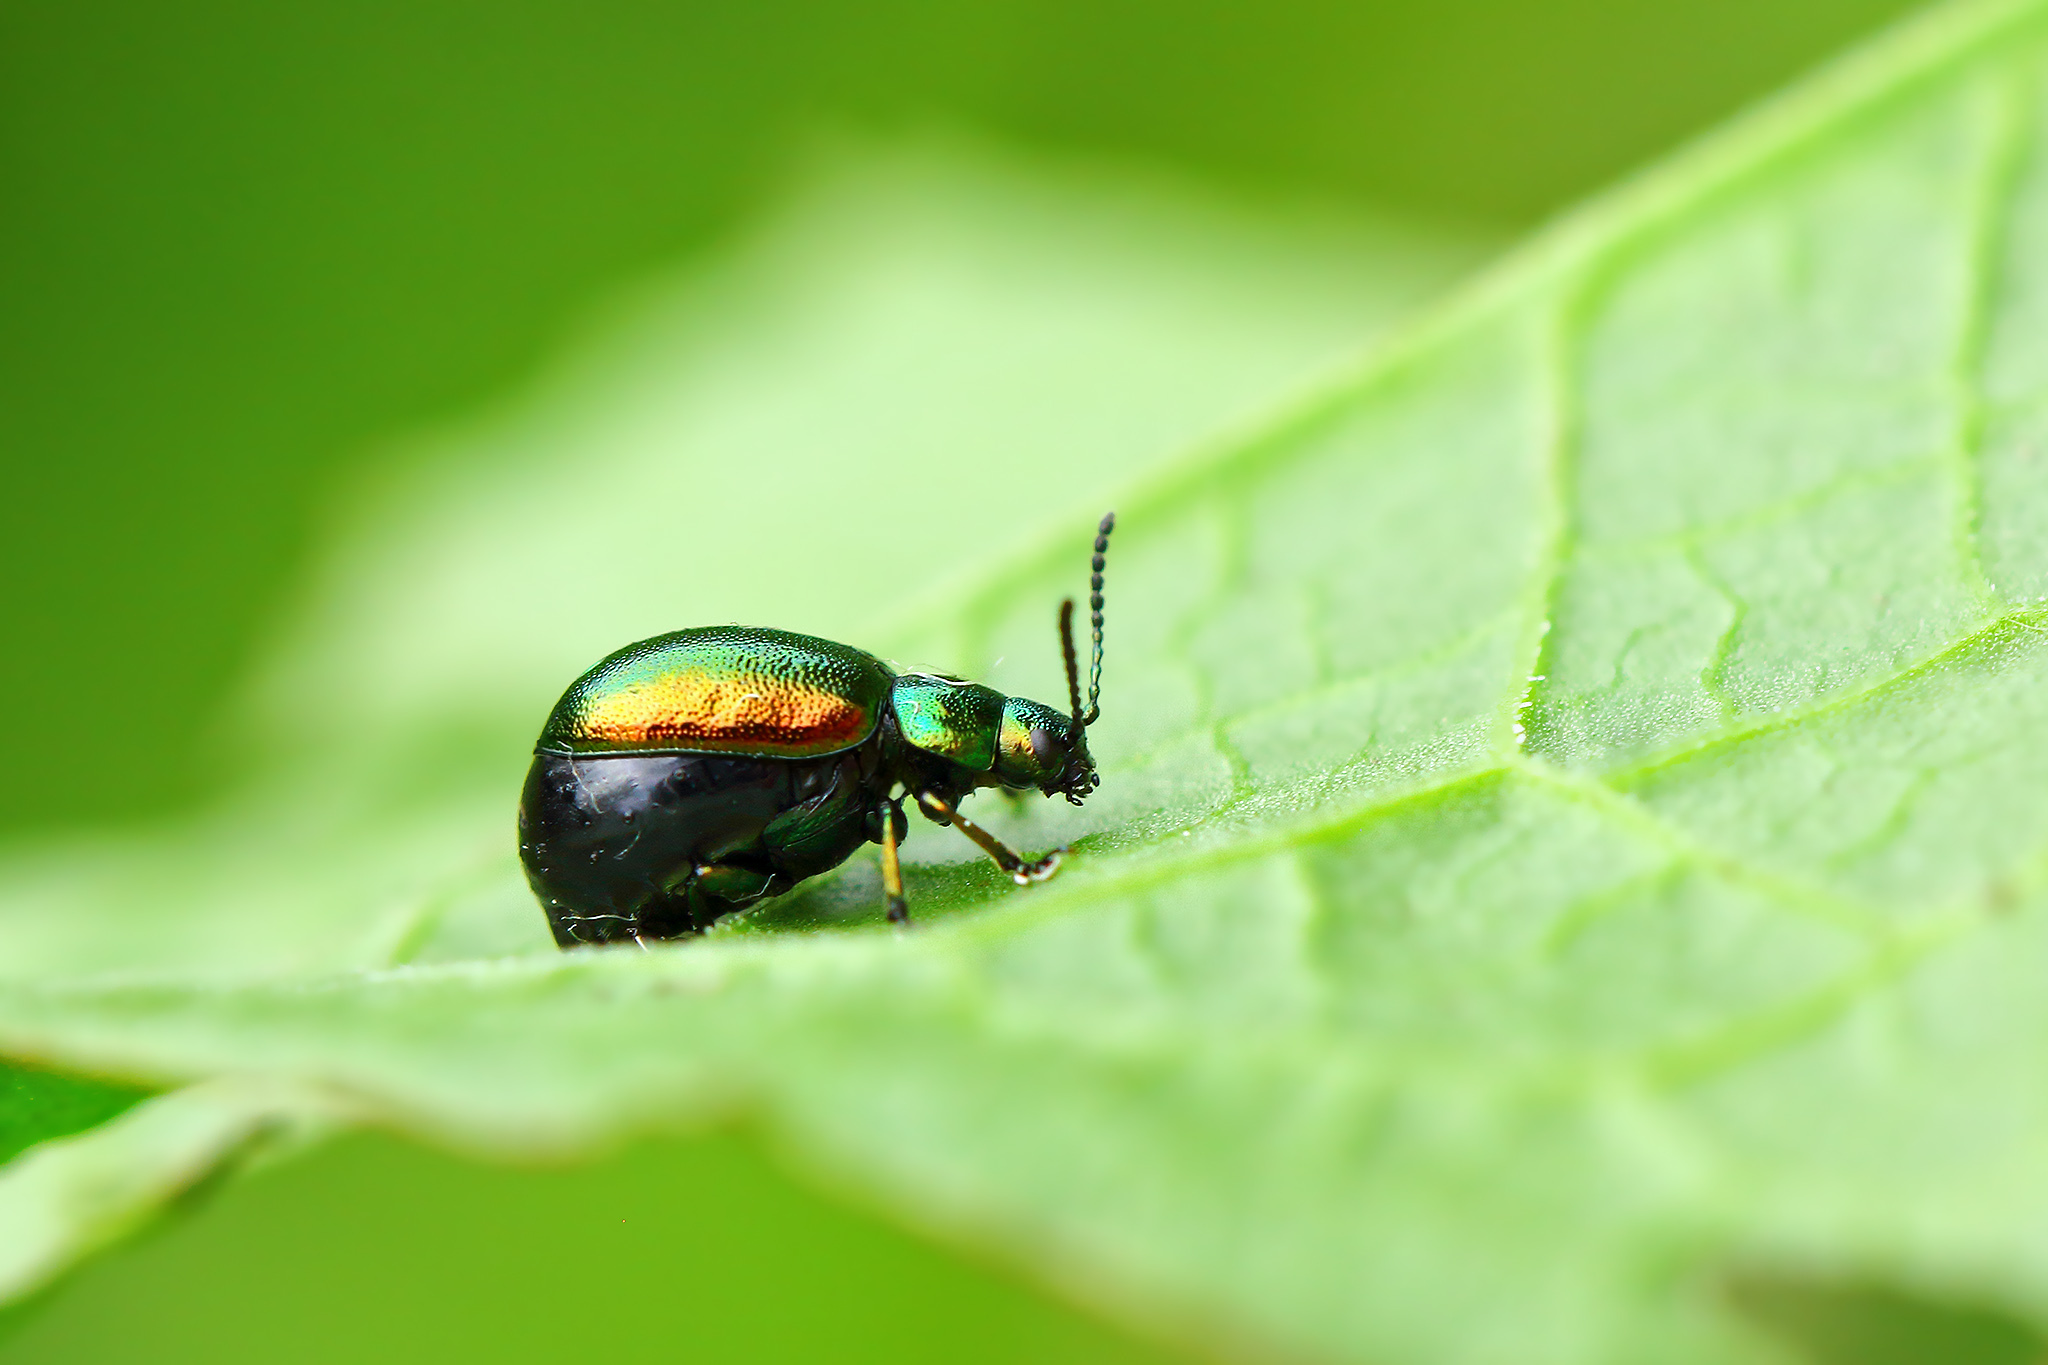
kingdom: Animalia
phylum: Arthropoda
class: Insecta
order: Coleoptera
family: Chrysomelidae
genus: Gastrophysa
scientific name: Gastrophysa viridula
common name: Green dock beetle
